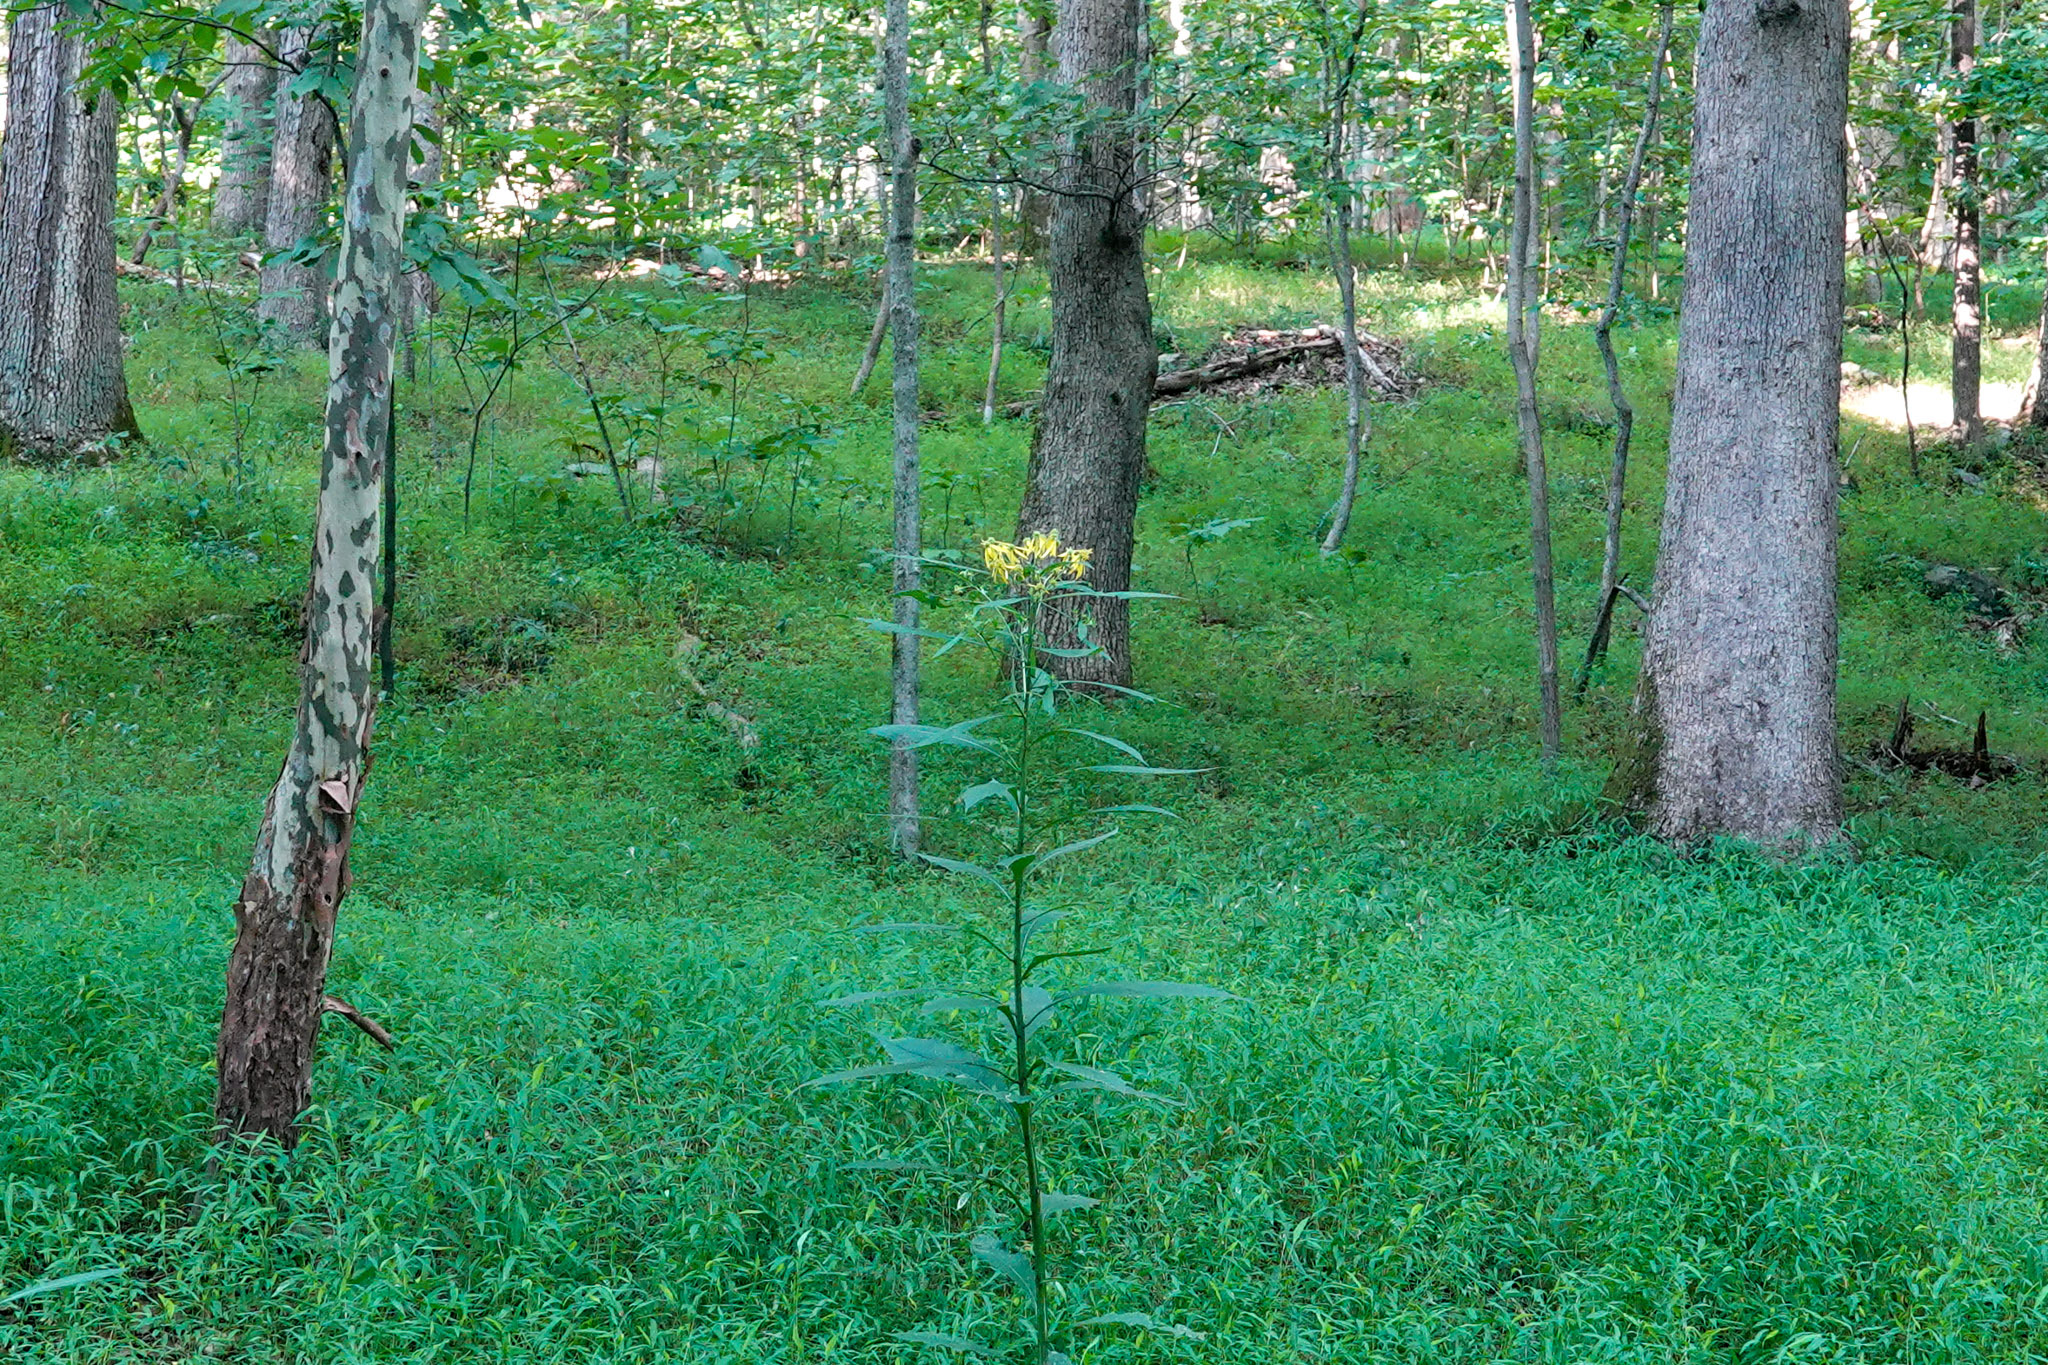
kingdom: Plantae
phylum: Tracheophyta
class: Magnoliopsida
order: Asterales
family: Asteraceae
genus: Verbesina
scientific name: Verbesina alternifolia
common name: Wingstem
